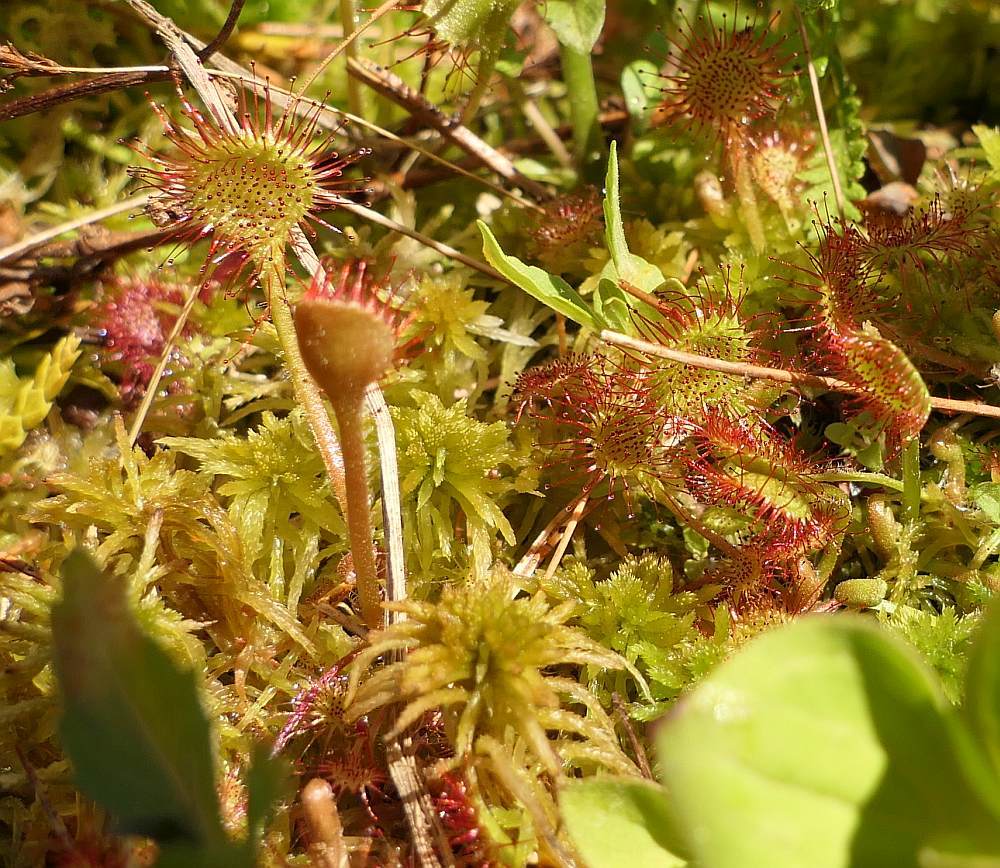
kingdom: Plantae
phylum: Tracheophyta
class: Magnoliopsida
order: Caryophyllales
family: Droseraceae
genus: Drosera
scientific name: Drosera rotundifolia
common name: Round-leaved sundew
